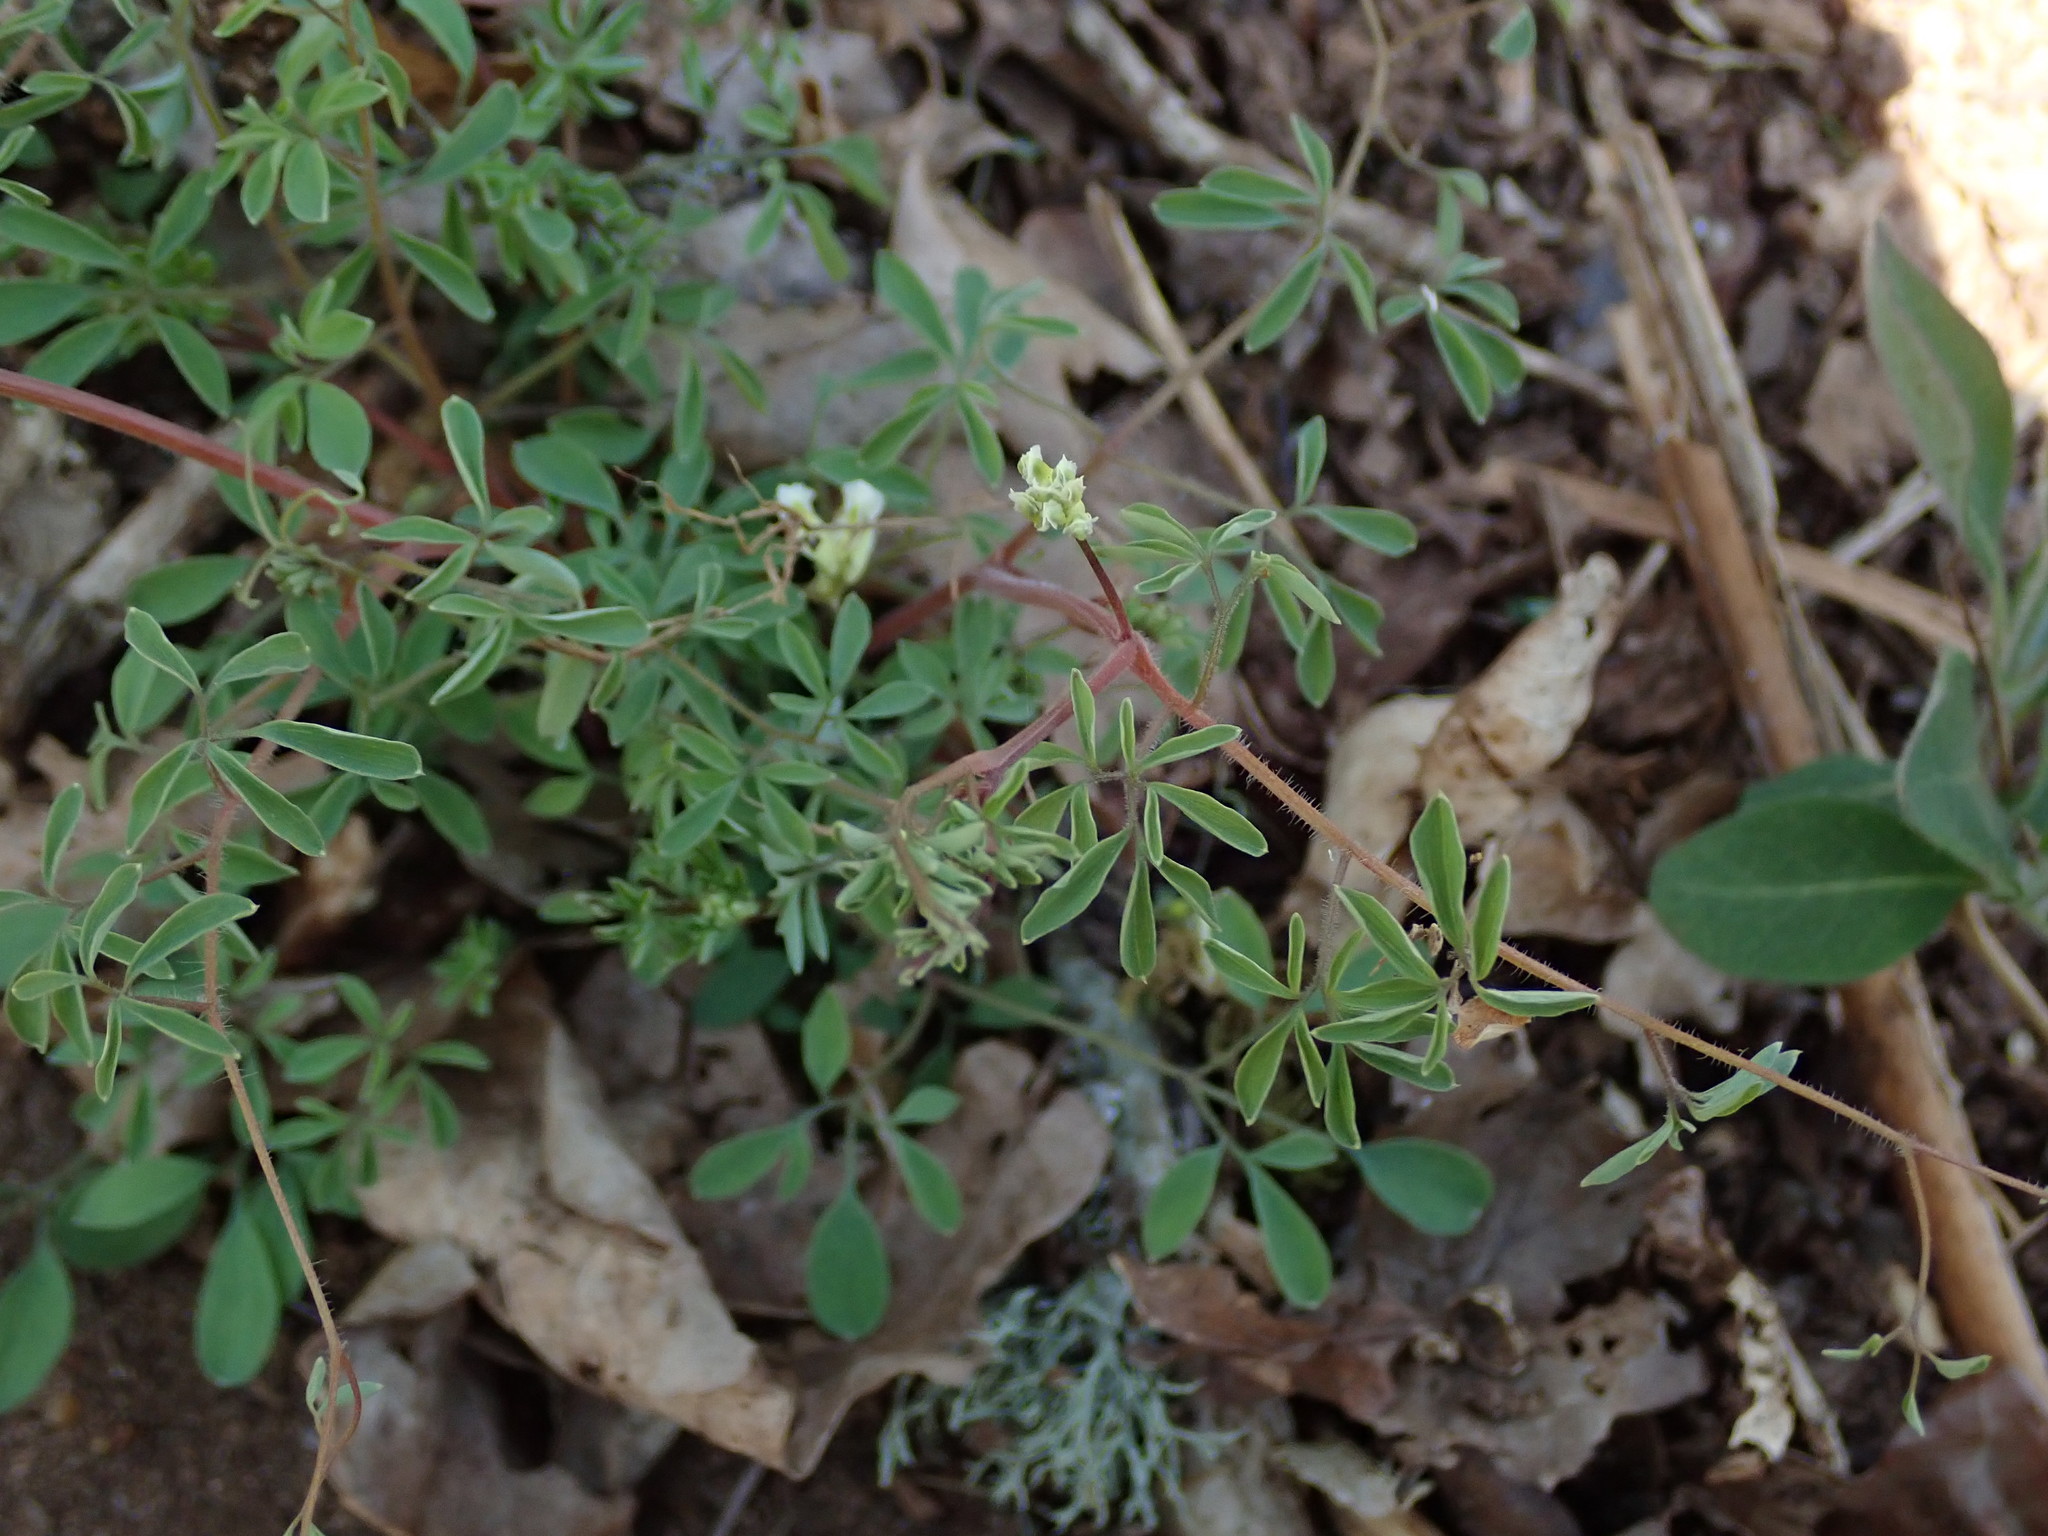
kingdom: Plantae
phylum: Tracheophyta
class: Magnoliopsida
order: Ranunculales
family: Papaveraceae
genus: Ceratocapnos
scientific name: Ceratocapnos claviculata
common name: Climbing corydalis
